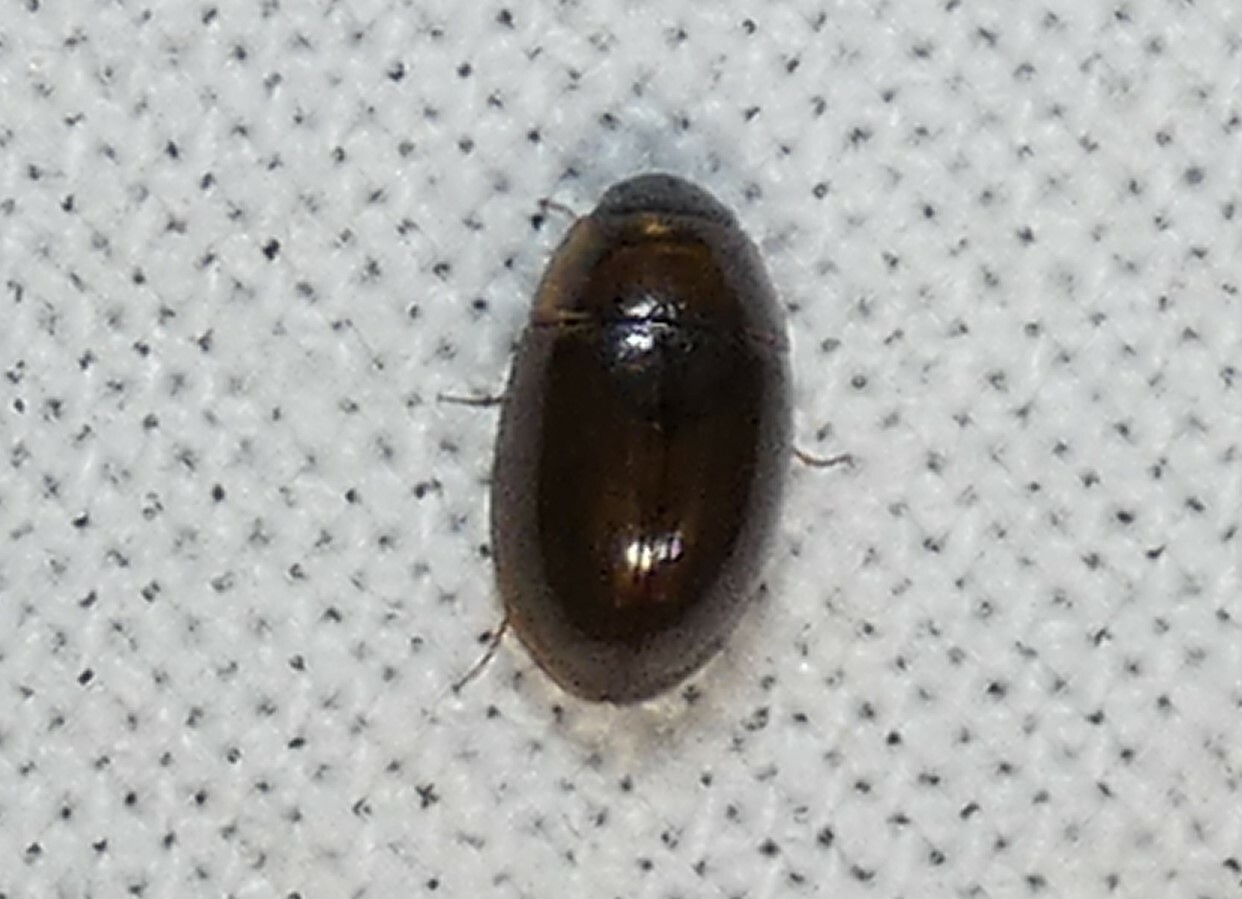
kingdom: Animalia
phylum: Arthropoda
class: Insecta
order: Coleoptera
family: Hydrophilidae
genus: Enochrus
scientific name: Enochrus
